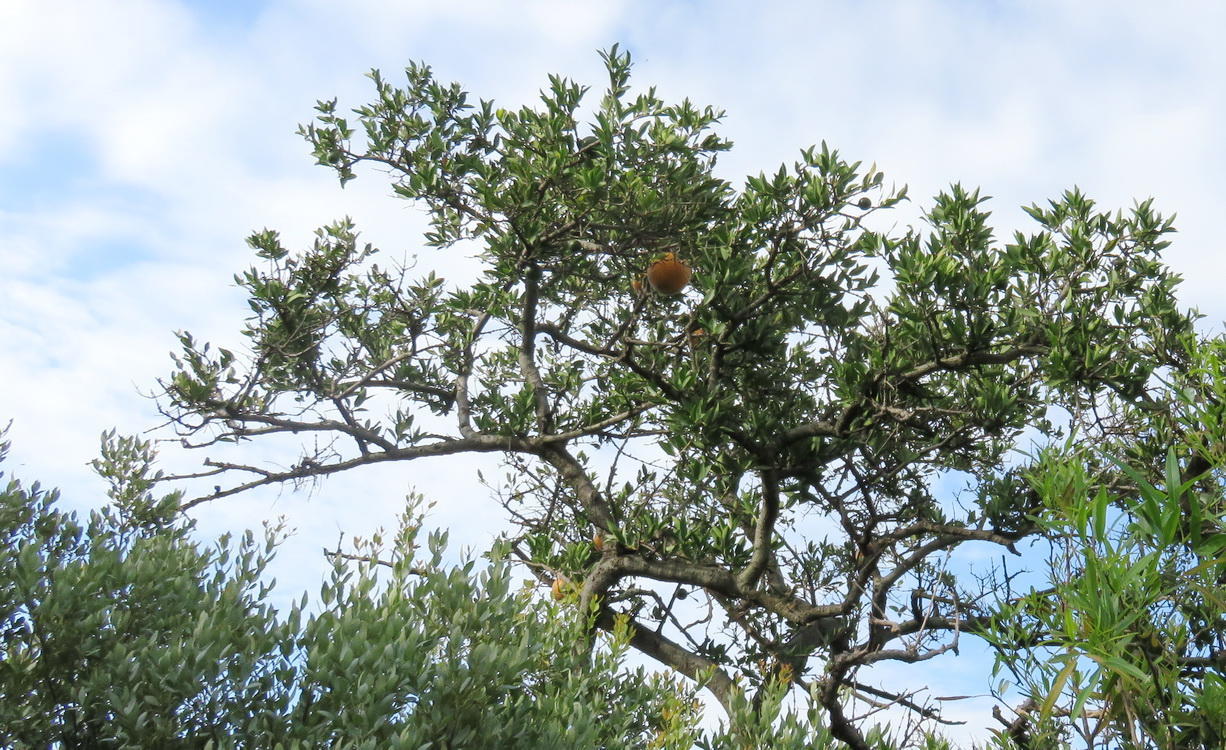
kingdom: Plantae
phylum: Tracheophyta
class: Magnoliopsida
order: Gentianales
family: Loganiaceae
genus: Strychnos
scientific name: Strychnos pungens
